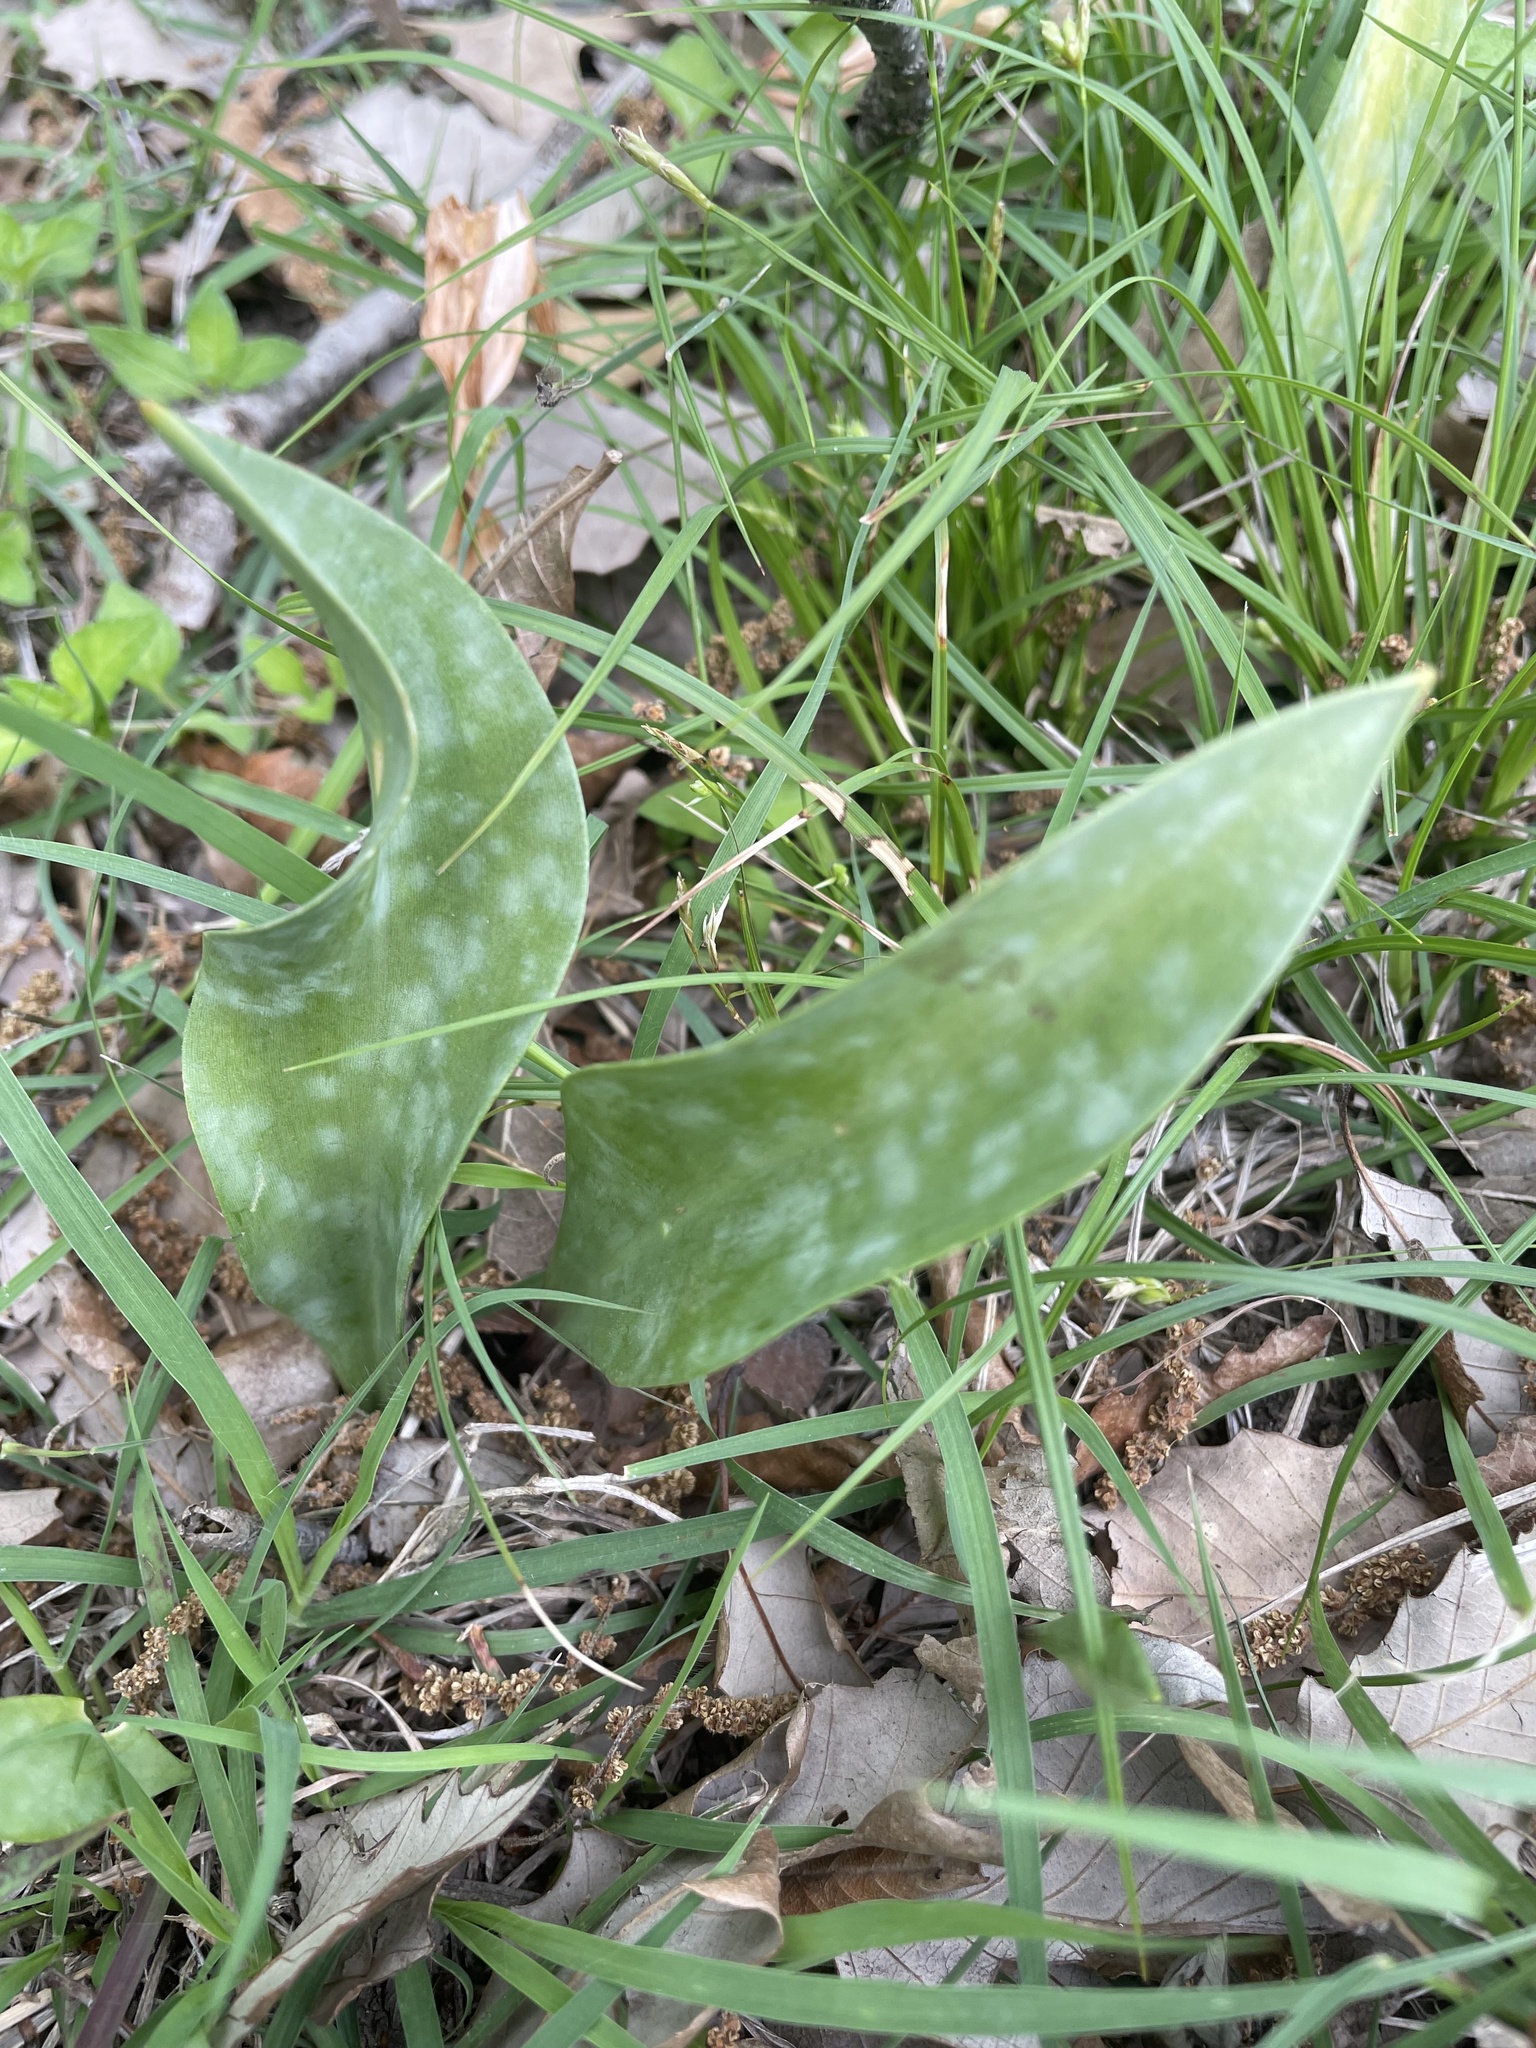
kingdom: Plantae
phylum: Tracheophyta
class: Liliopsida
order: Liliales
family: Liliaceae
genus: Erythronium
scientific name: Erythronium albidum
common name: White trout-lily
